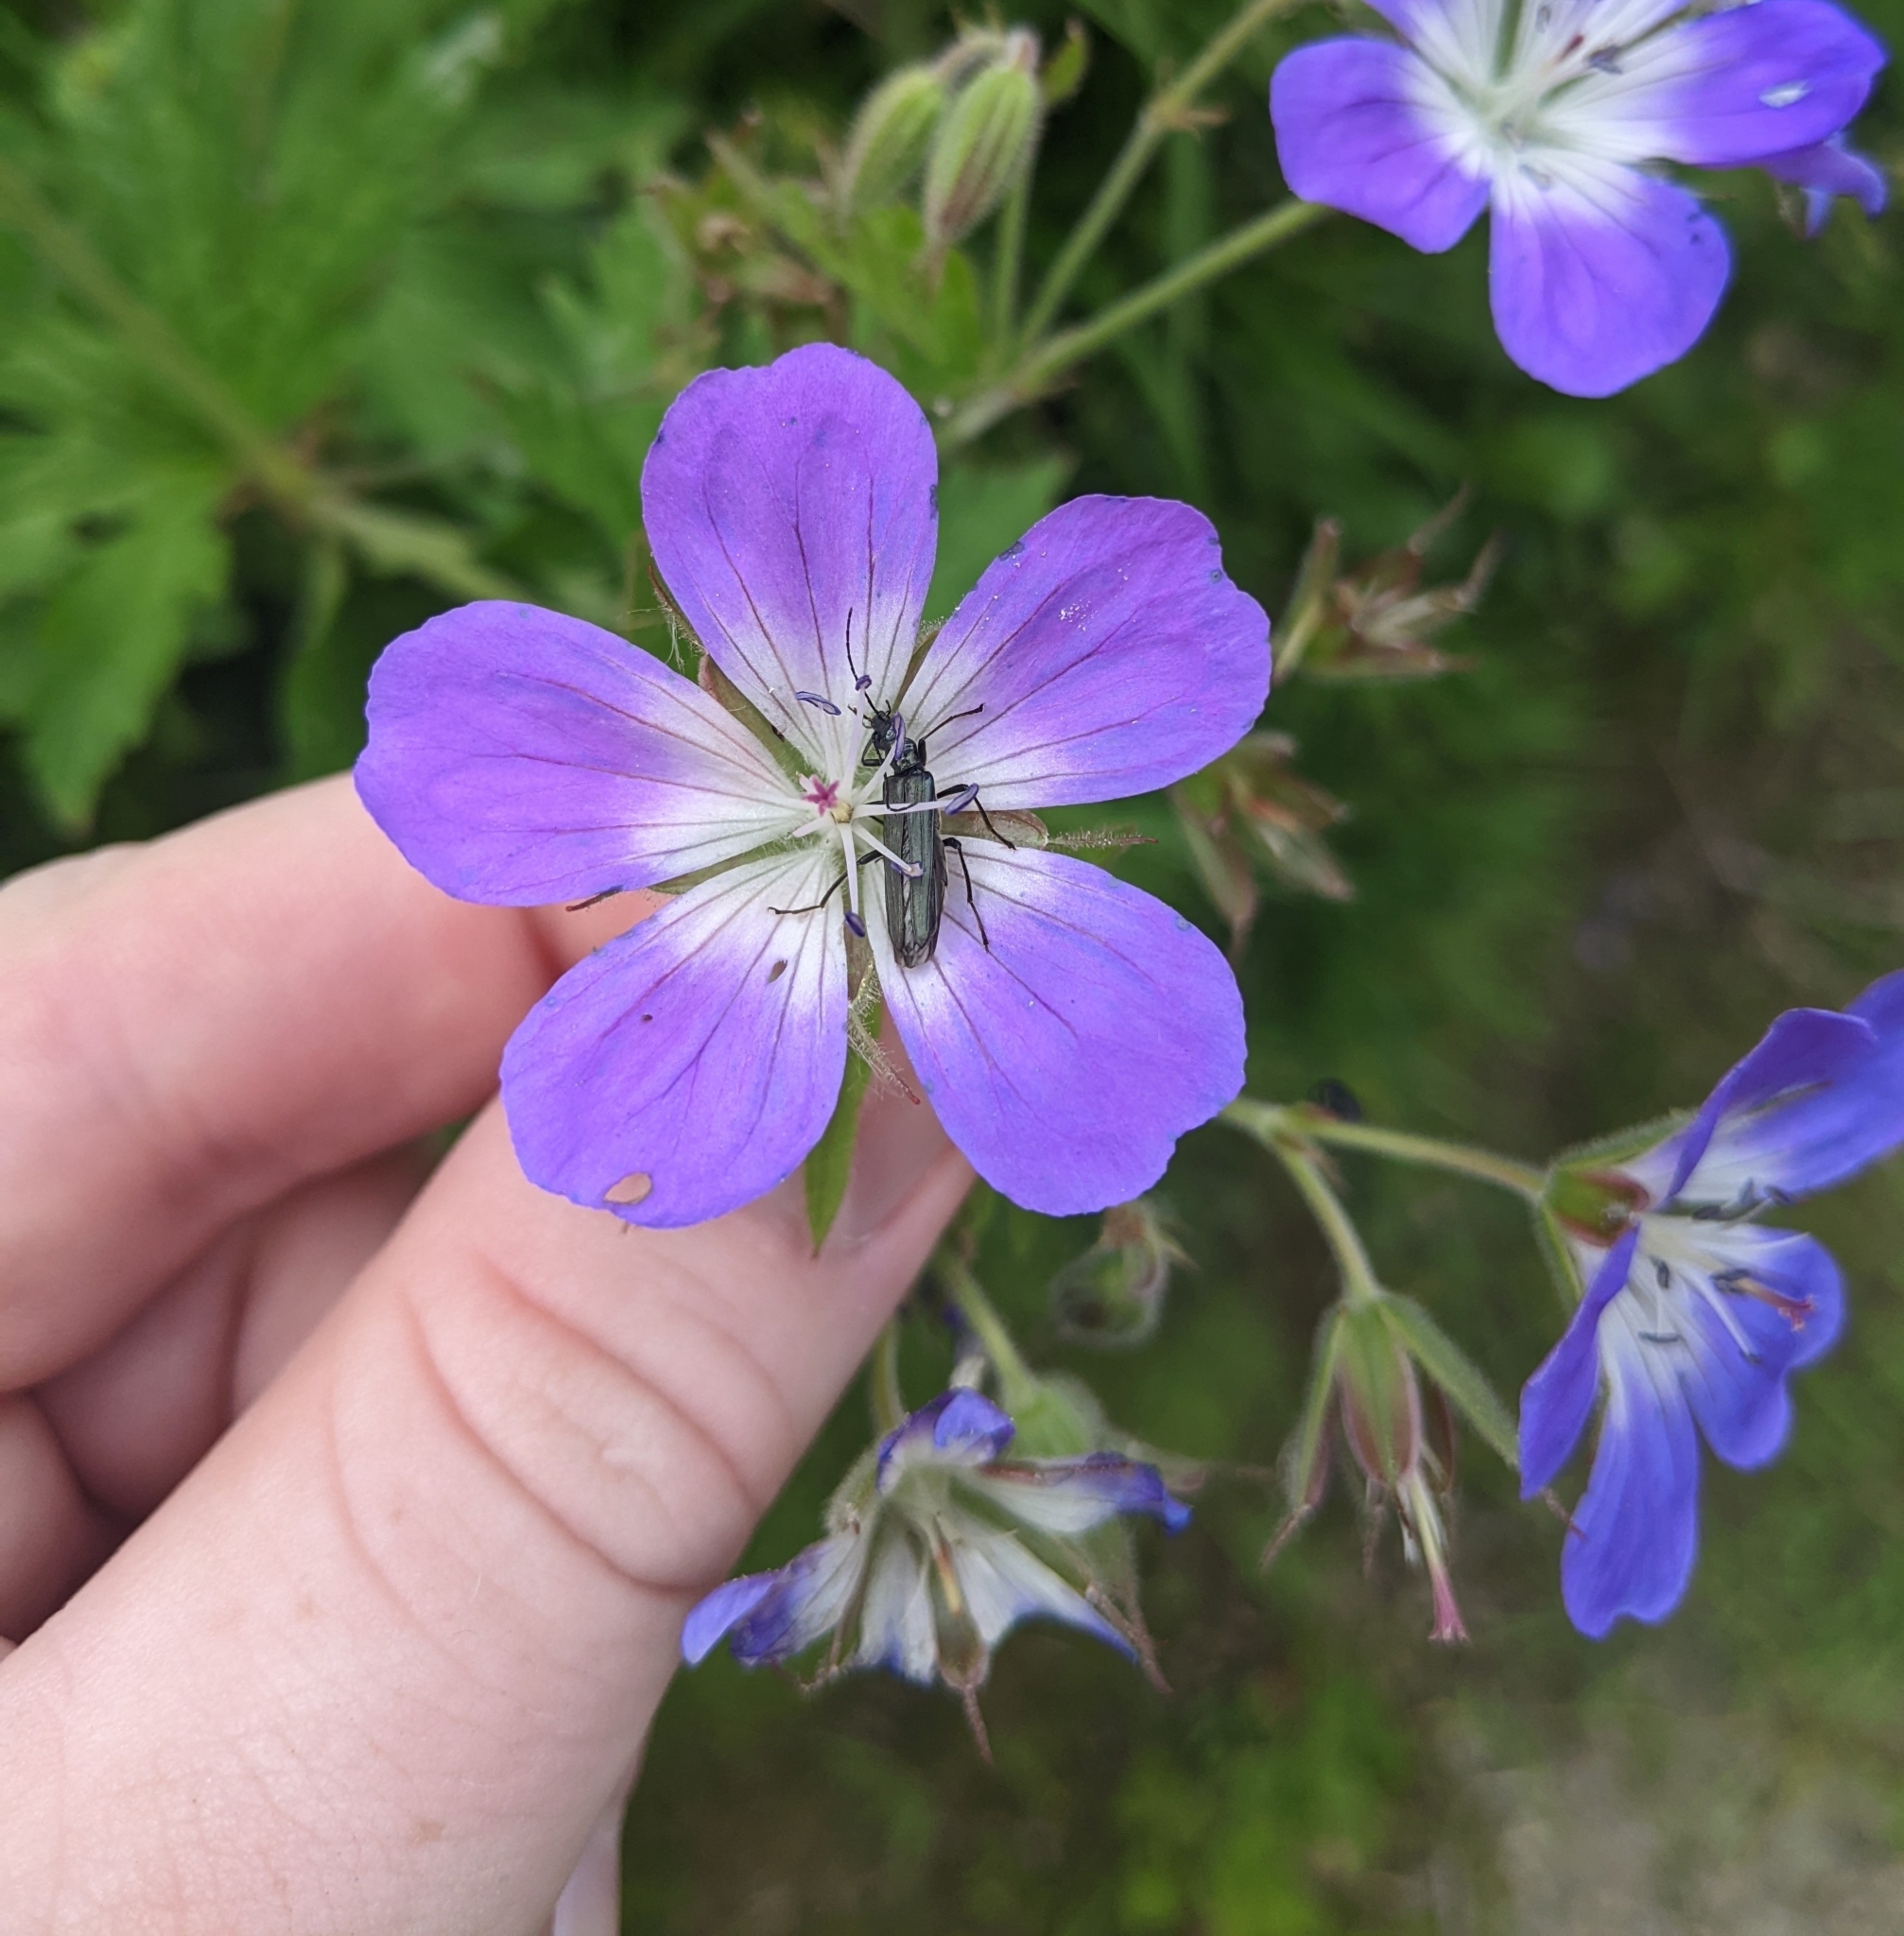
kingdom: Plantae
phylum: Tracheophyta
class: Magnoliopsida
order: Geraniales
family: Geraniaceae
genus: Geranium
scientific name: Geranium sylvaticum
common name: Wood crane's-bill
